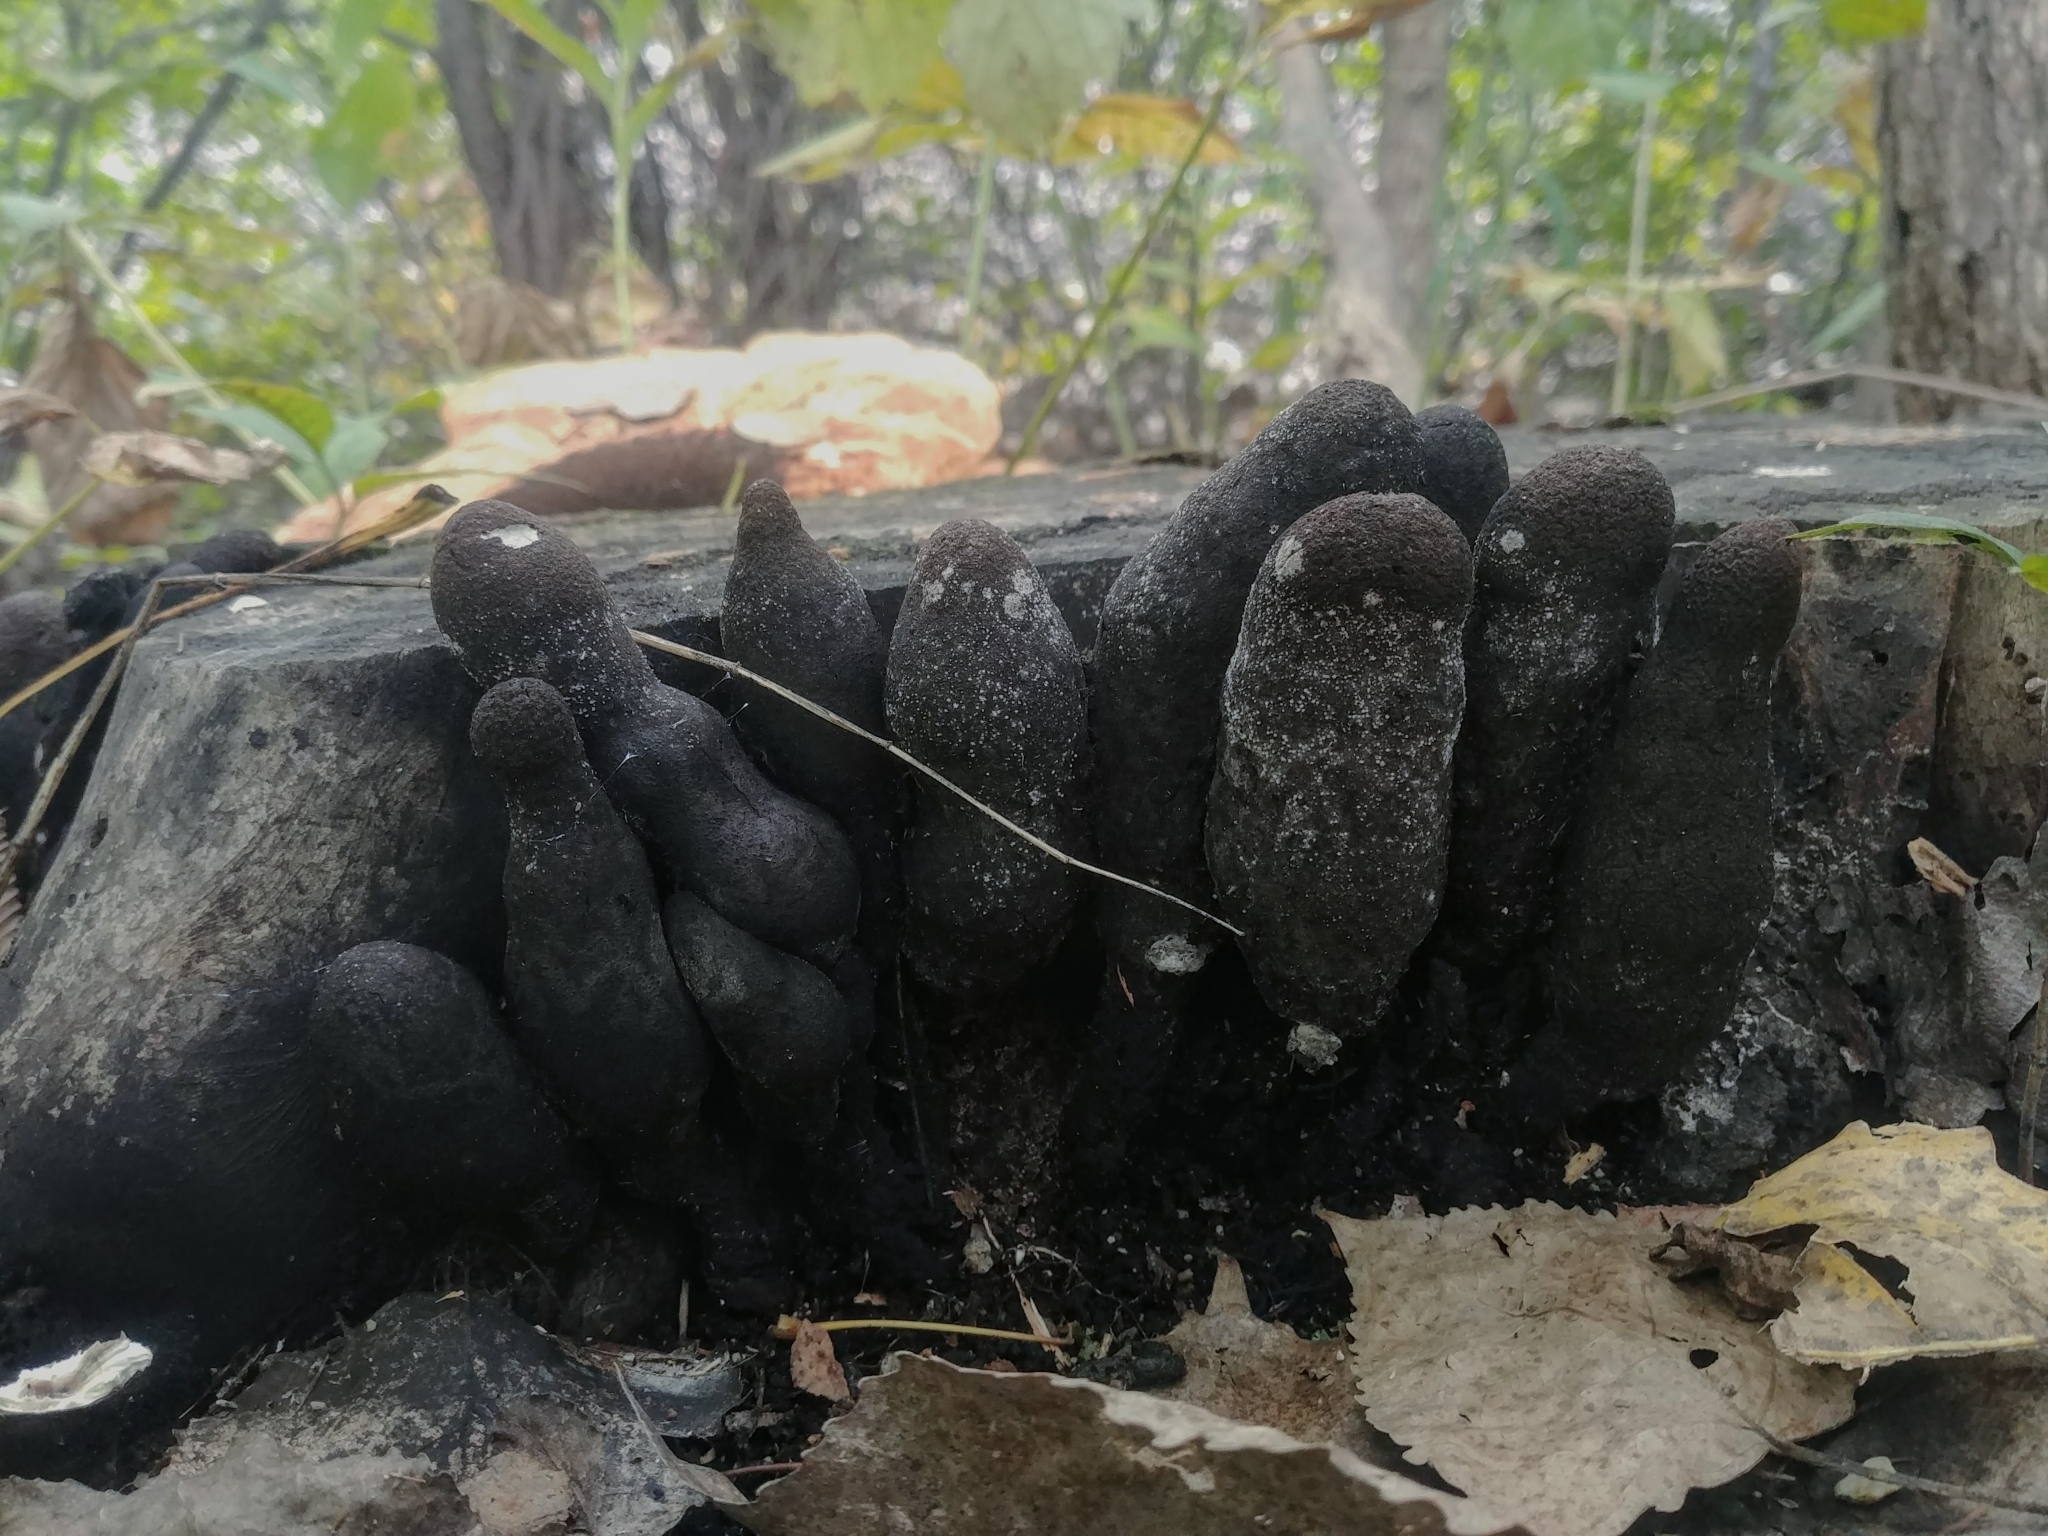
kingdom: Fungi
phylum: Ascomycota
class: Sordariomycetes
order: Xylariales
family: Xylariaceae
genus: Xylaria
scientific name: Xylaria polymorpha
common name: Dead man's fingers
